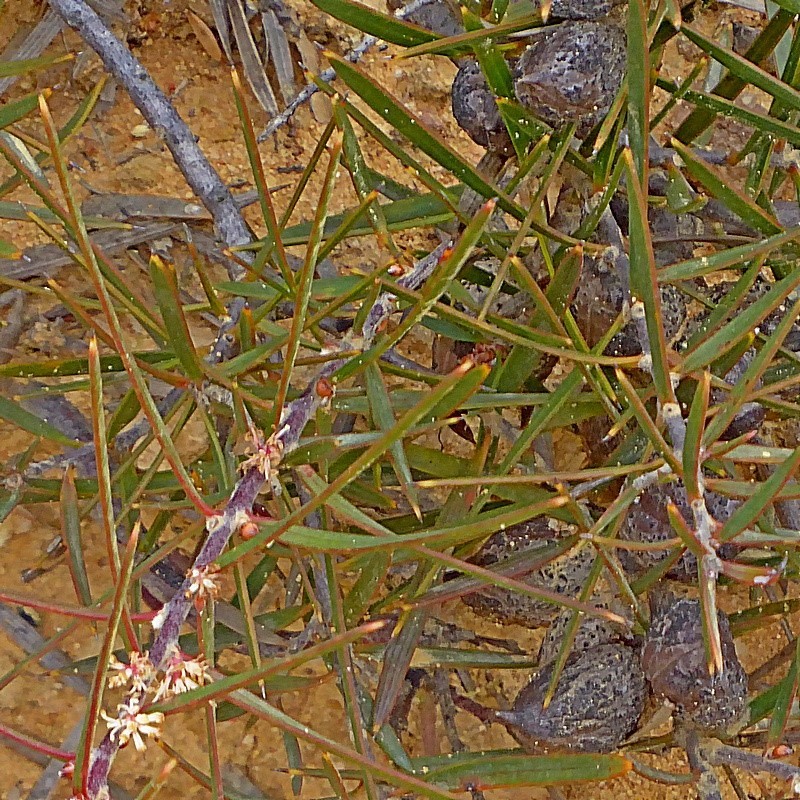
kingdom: Plantae
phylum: Tracheophyta
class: Magnoliopsida
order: Proteales
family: Proteaceae
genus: Hakea
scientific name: Hakea ulicina
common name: Furze hakea
